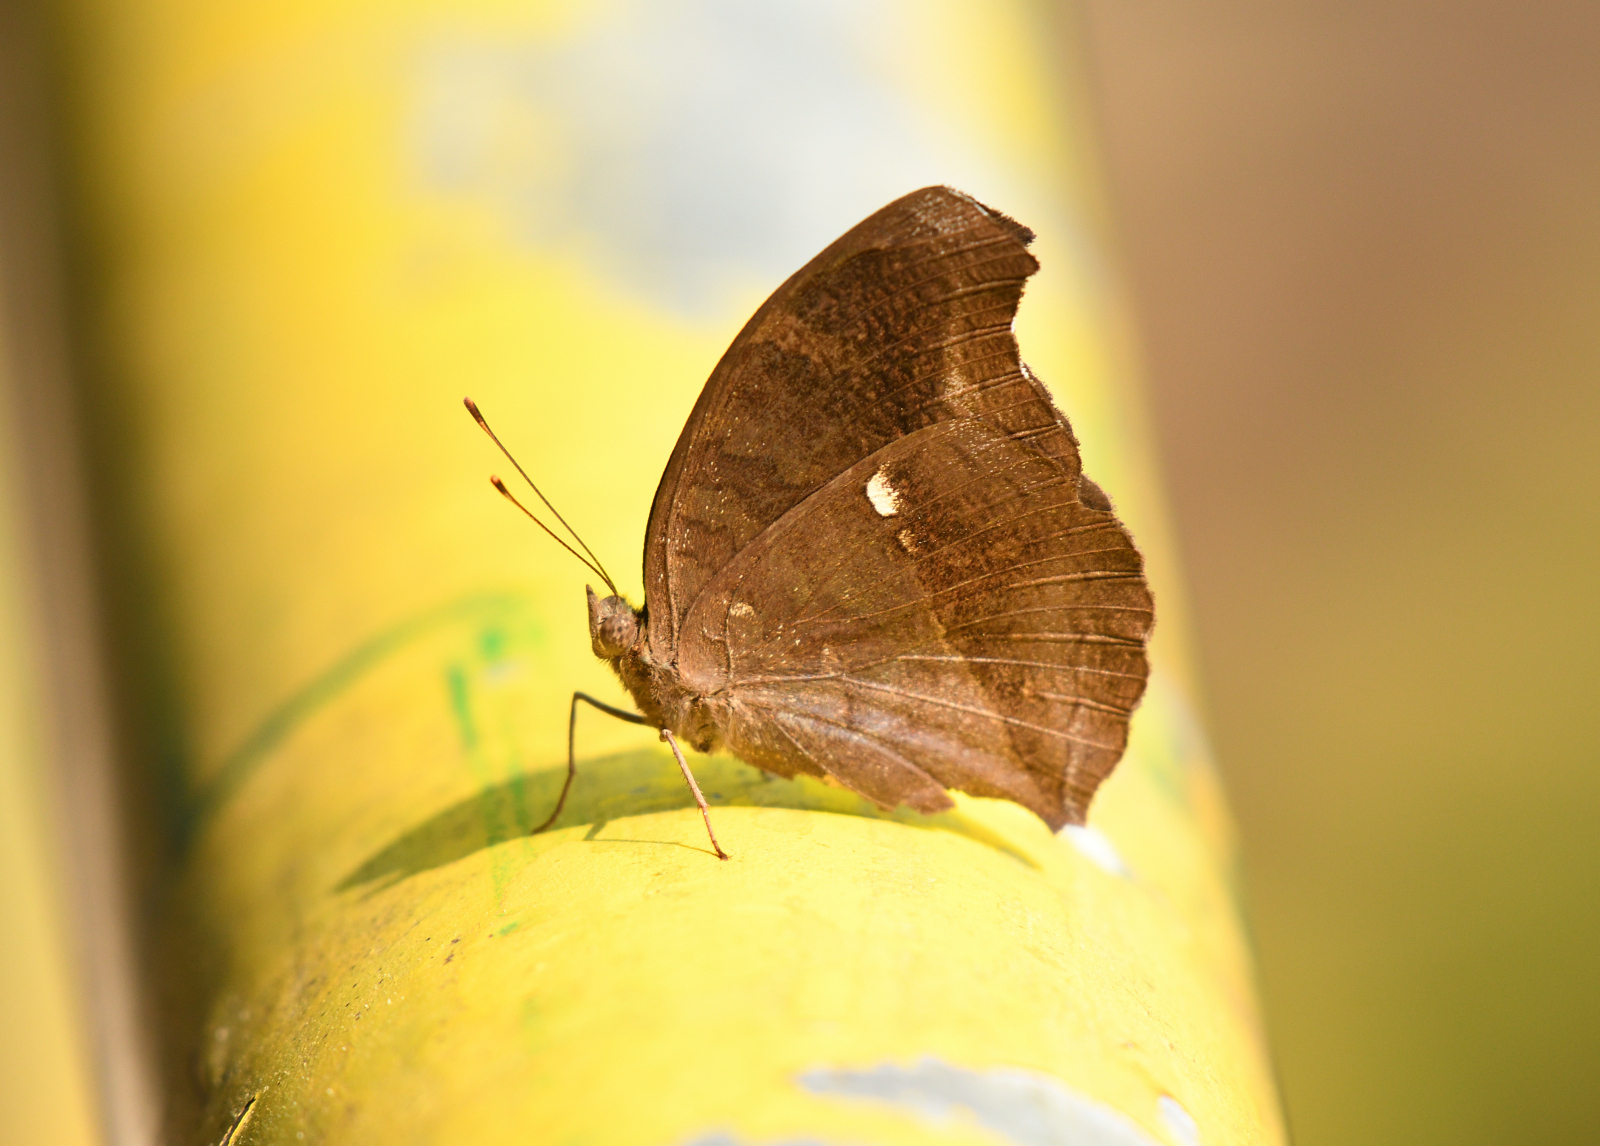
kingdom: Animalia
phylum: Arthropoda
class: Insecta
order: Lepidoptera
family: Nymphalidae
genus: Junonia
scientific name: Junonia iphita
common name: Chocolate pansy
